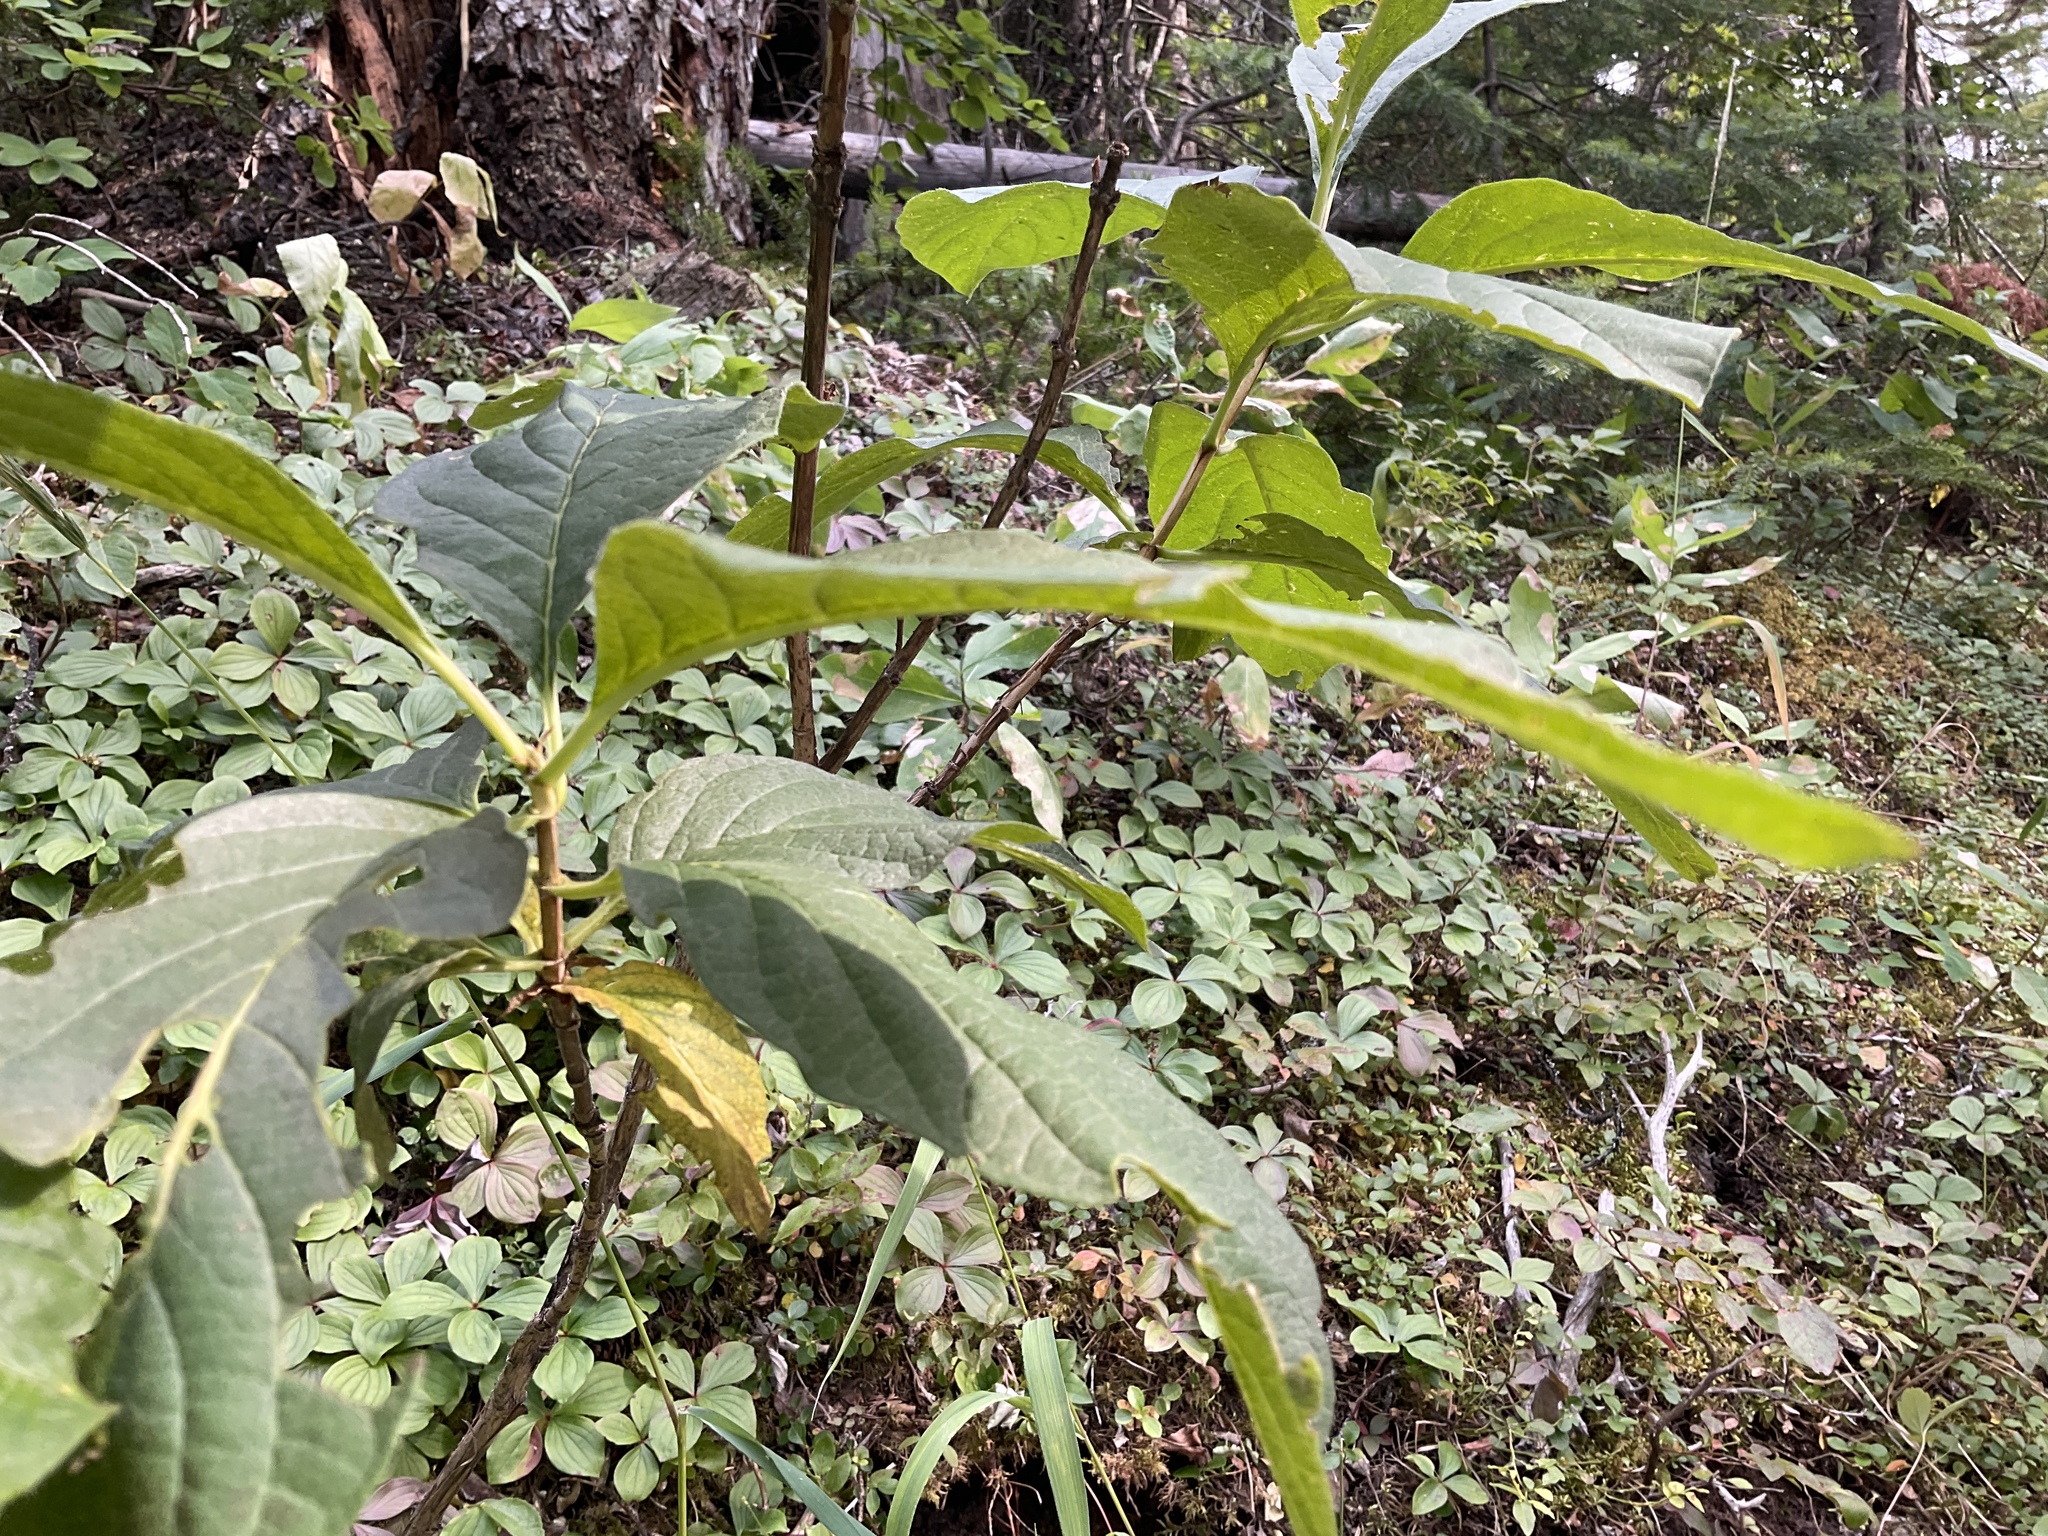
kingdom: Plantae
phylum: Tracheophyta
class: Magnoliopsida
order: Dipsacales
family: Caprifoliaceae
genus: Lonicera
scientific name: Lonicera involucrata
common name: Californian honeysuckle
